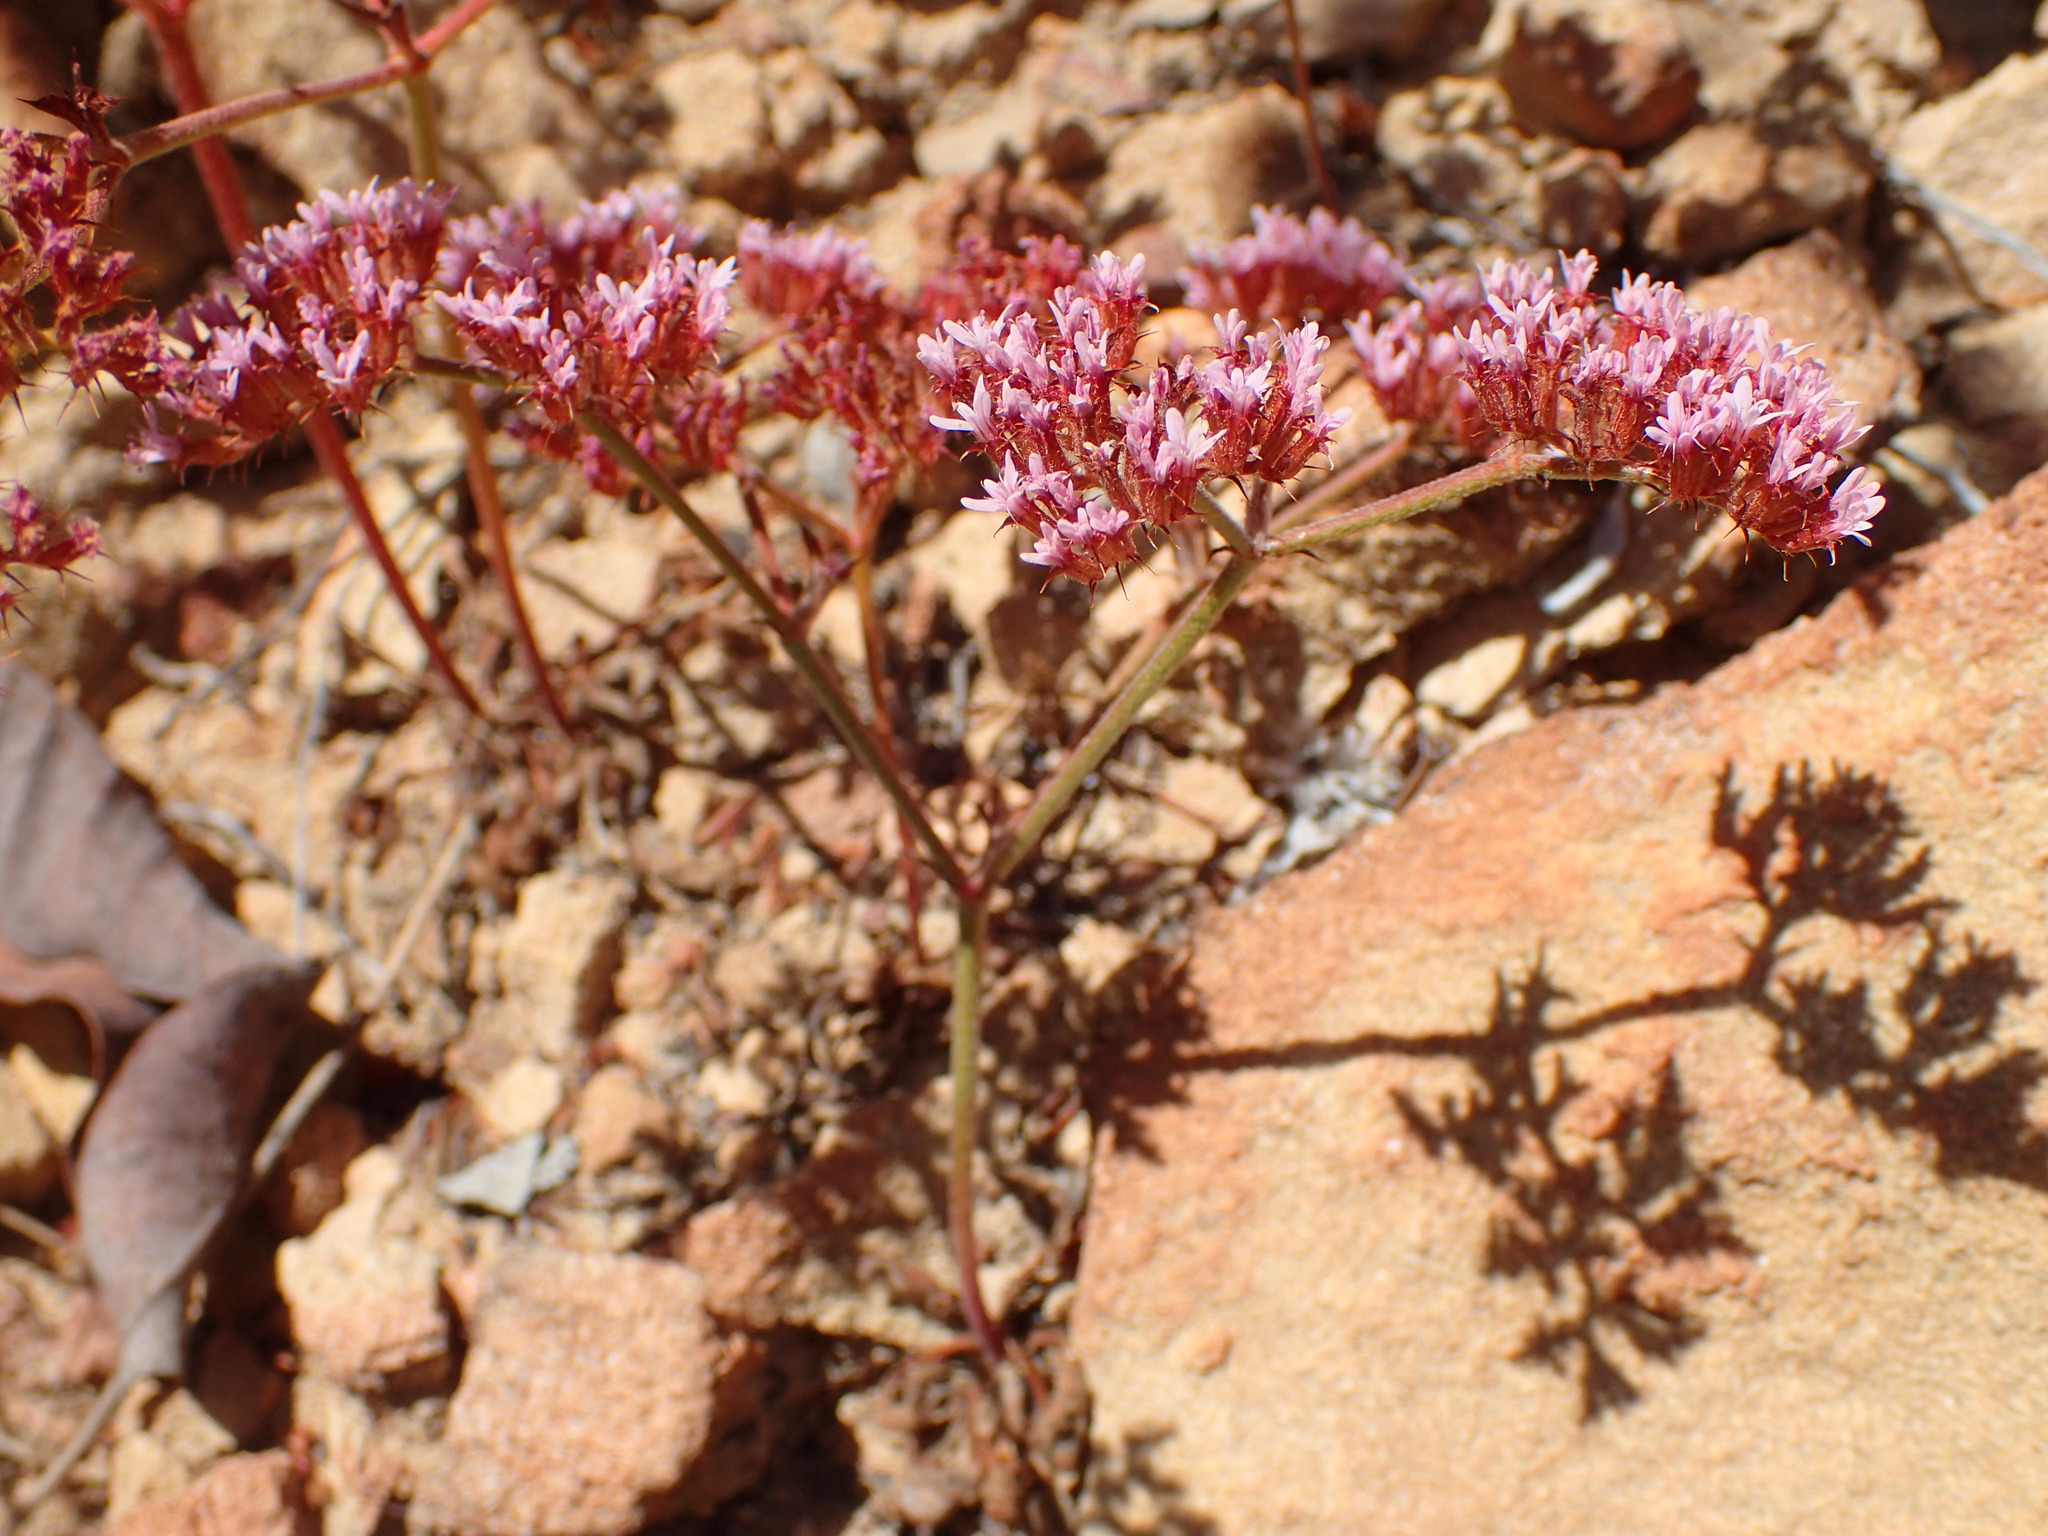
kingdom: Plantae
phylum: Tracheophyta
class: Magnoliopsida
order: Caryophyllales
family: Polygonaceae
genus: Chorizanthe
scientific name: Chorizanthe staticoides
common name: Turkish rugging
